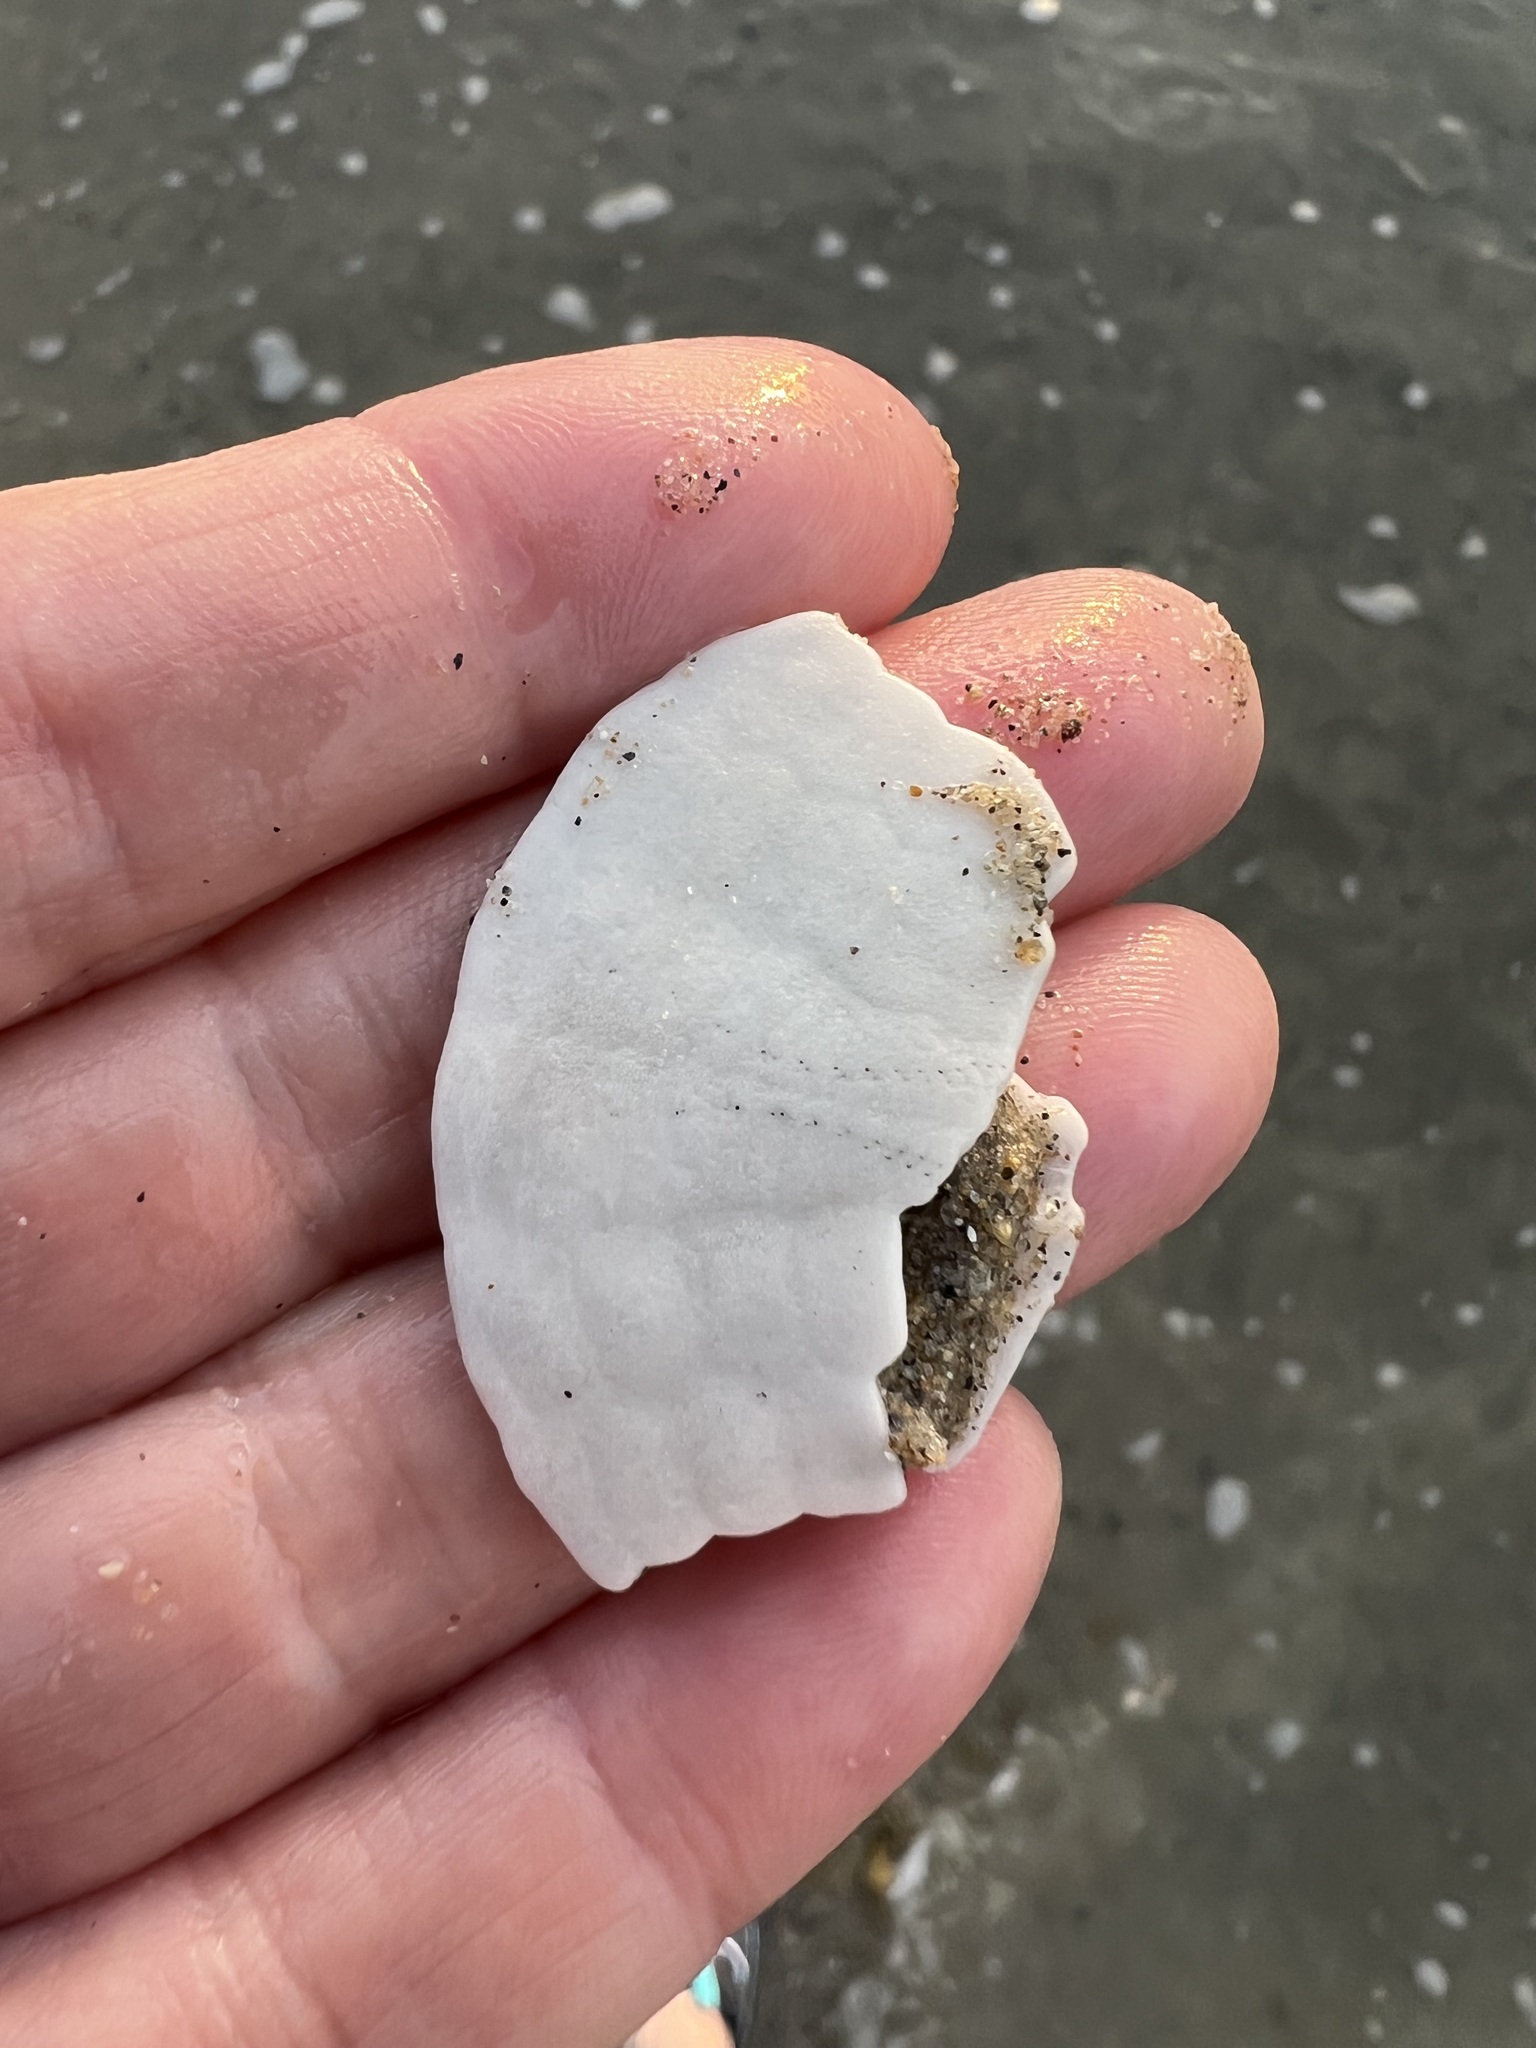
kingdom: Animalia
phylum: Echinodermata
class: Echinoidea
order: Echinolampadacea
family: Dendrasteridae
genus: Dendraster
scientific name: Dendraster excentricus
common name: Eccentric sand dollar sea urchin
